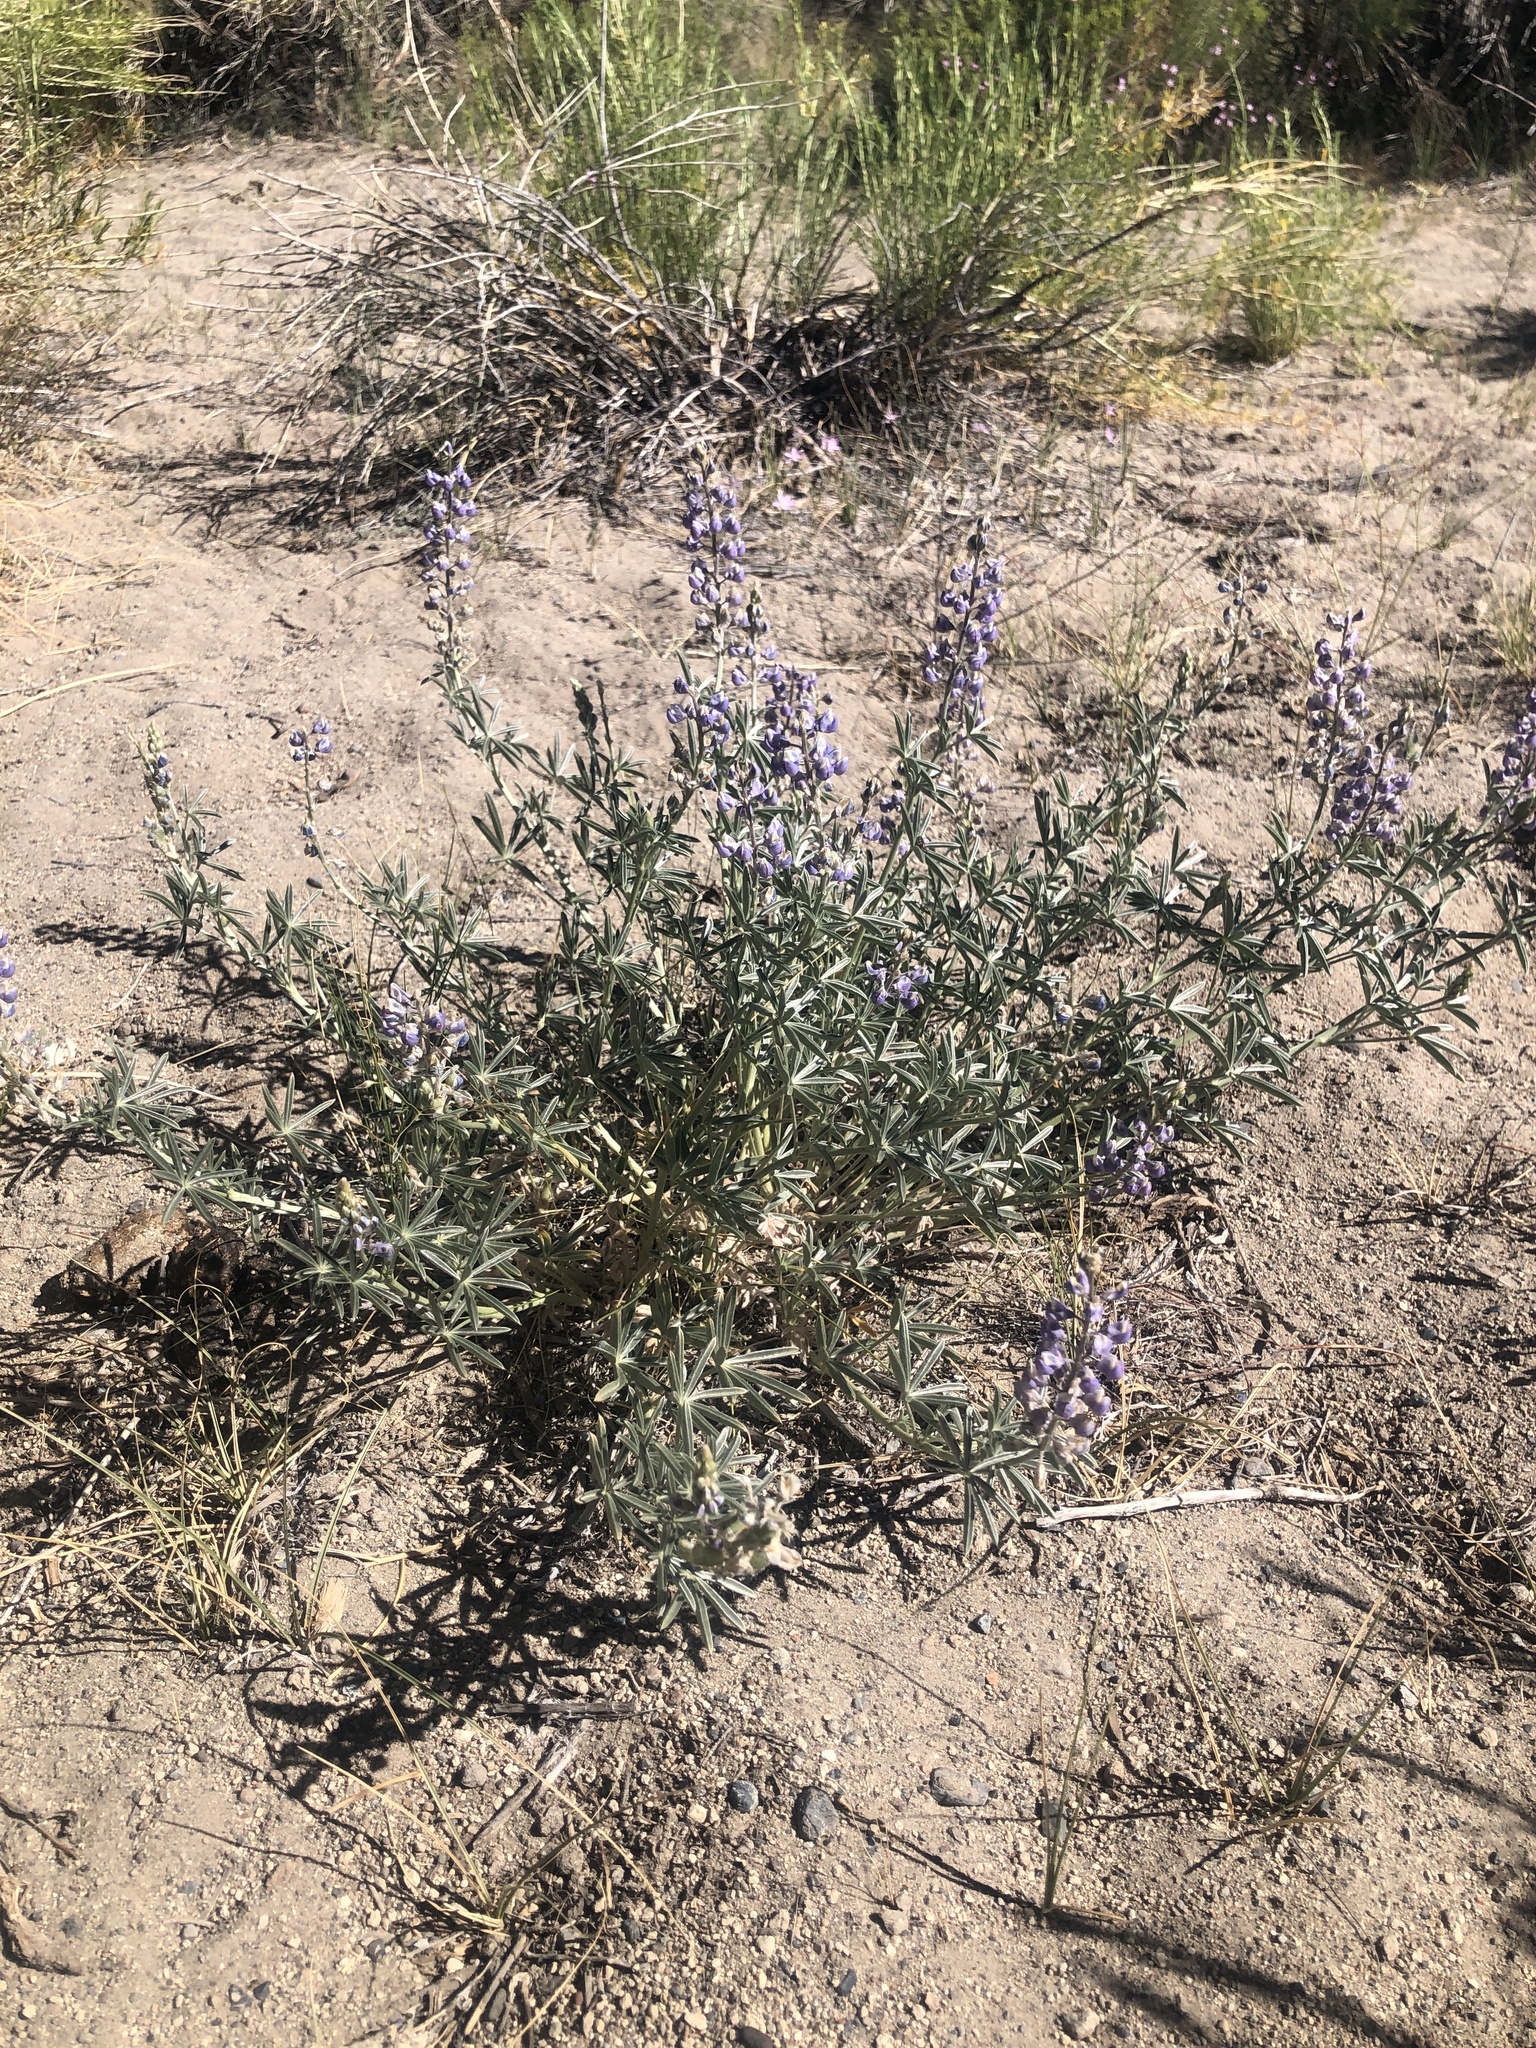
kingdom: Plantae
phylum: Tracheophyta
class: Magnoliopsida
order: Fabales
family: Fabaceae
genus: Lupinus
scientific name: Lupinus meionanthus
